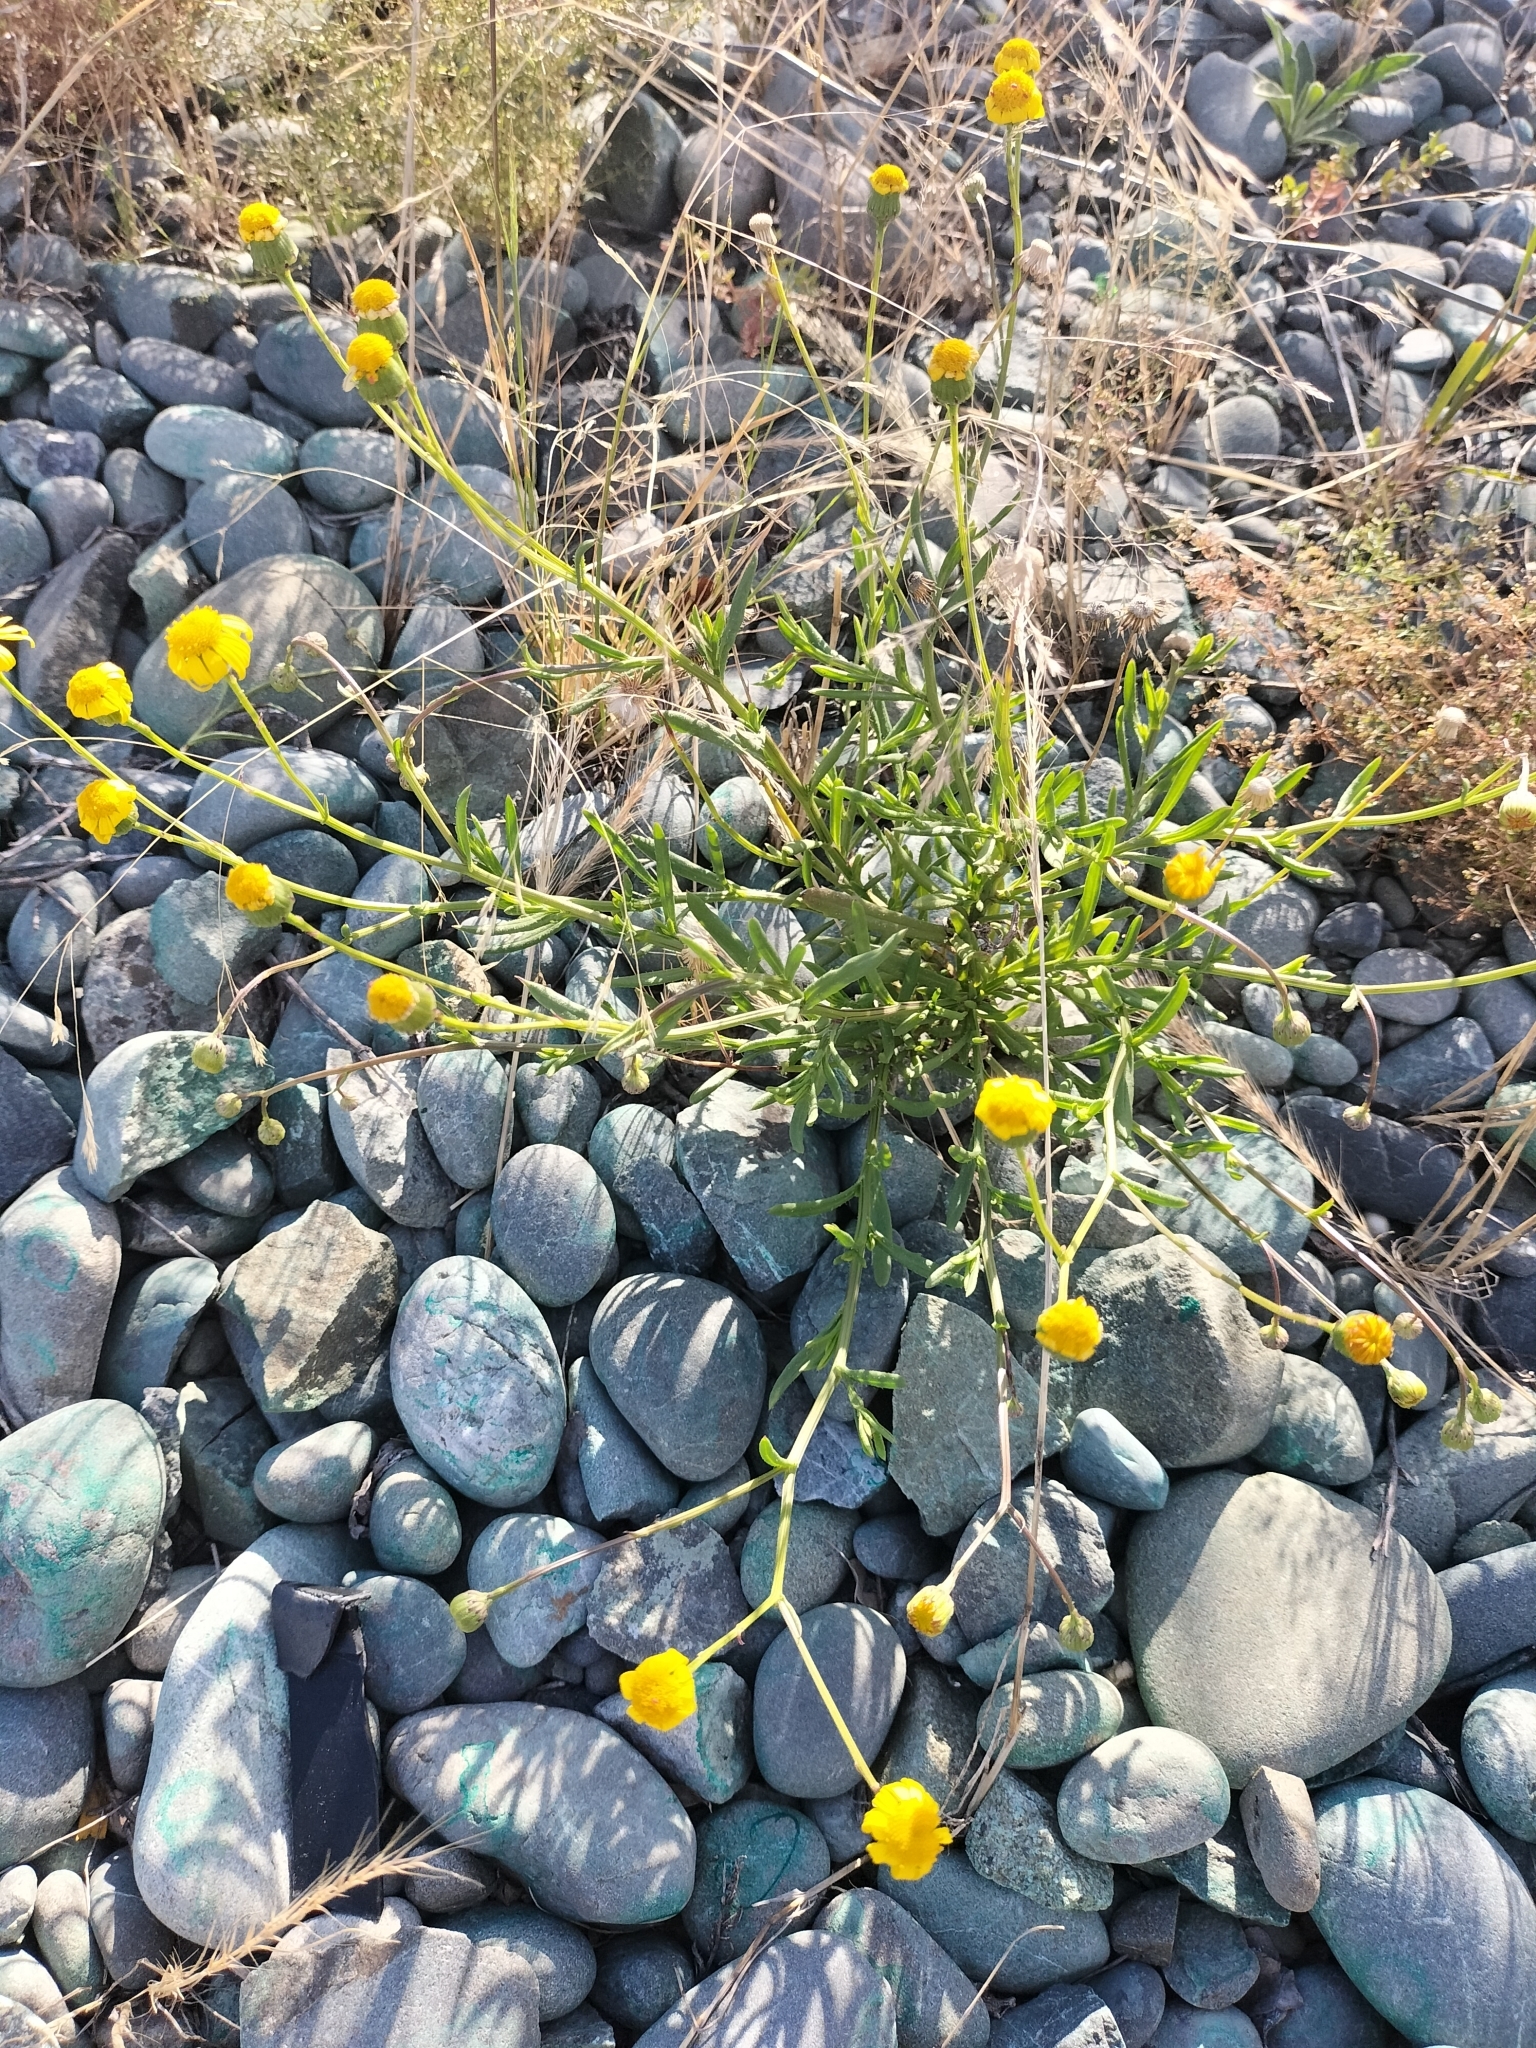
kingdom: Plantae
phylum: Tracheophyta
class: Magnoliopsida
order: Asterales
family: Asteraceae
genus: Senecio
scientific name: Senecio skirrhodon
